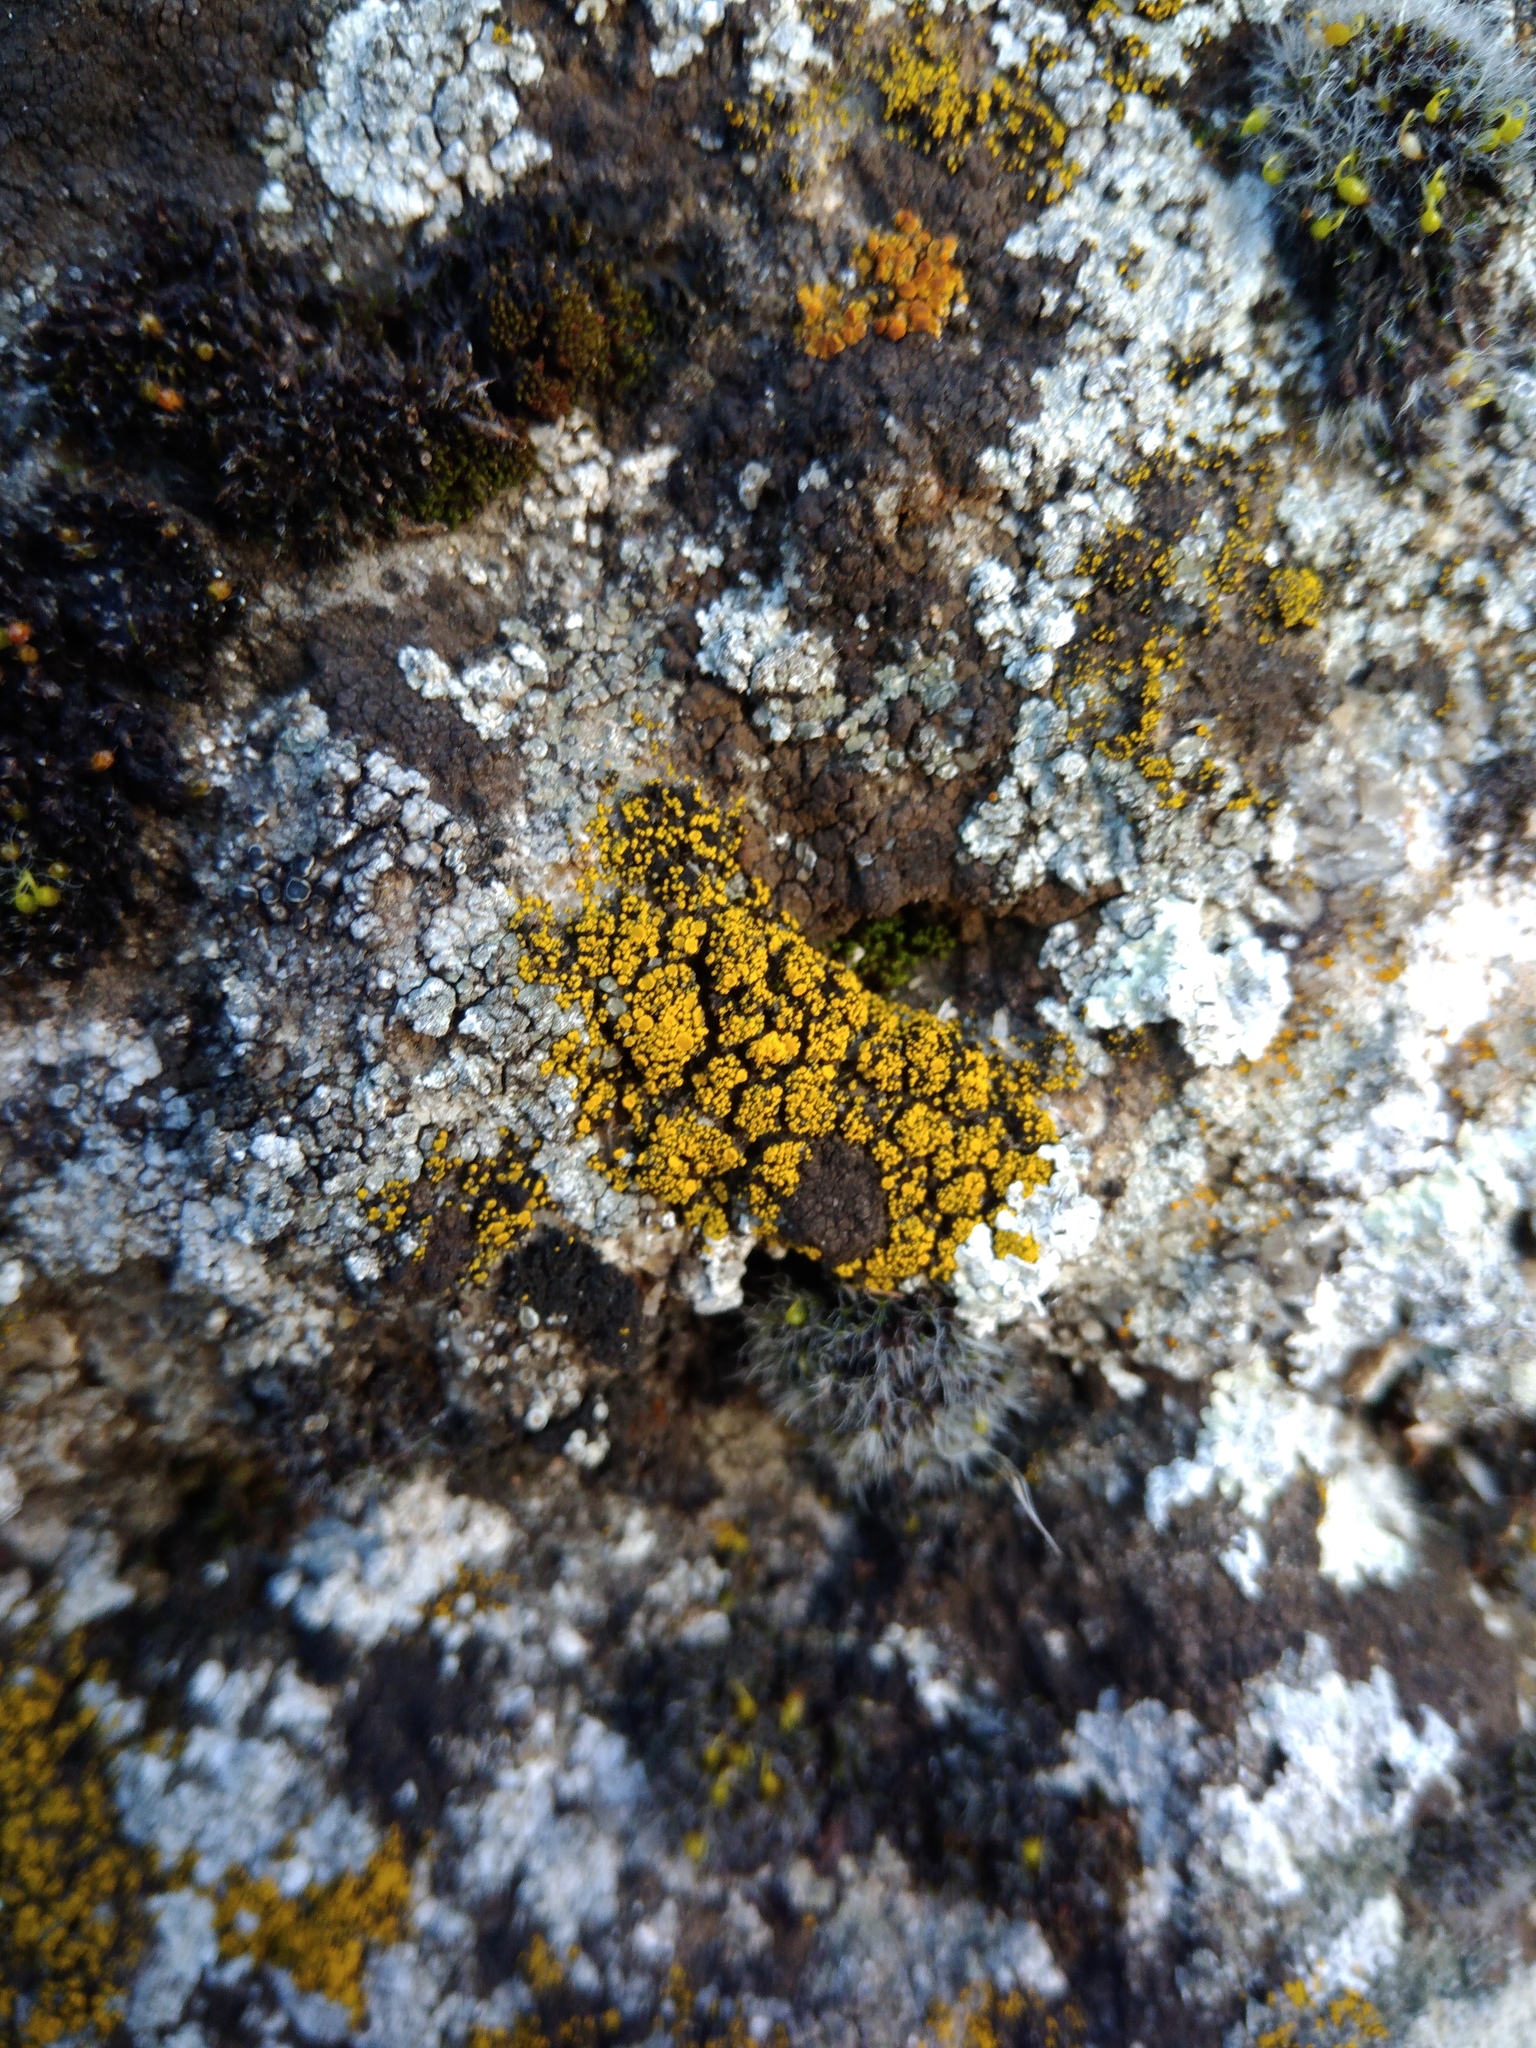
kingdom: Fungi
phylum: Ascomycota
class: Candelariomycetes
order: Candelariales
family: Candelariaceae
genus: Candelariella
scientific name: Candelariella rosulans
